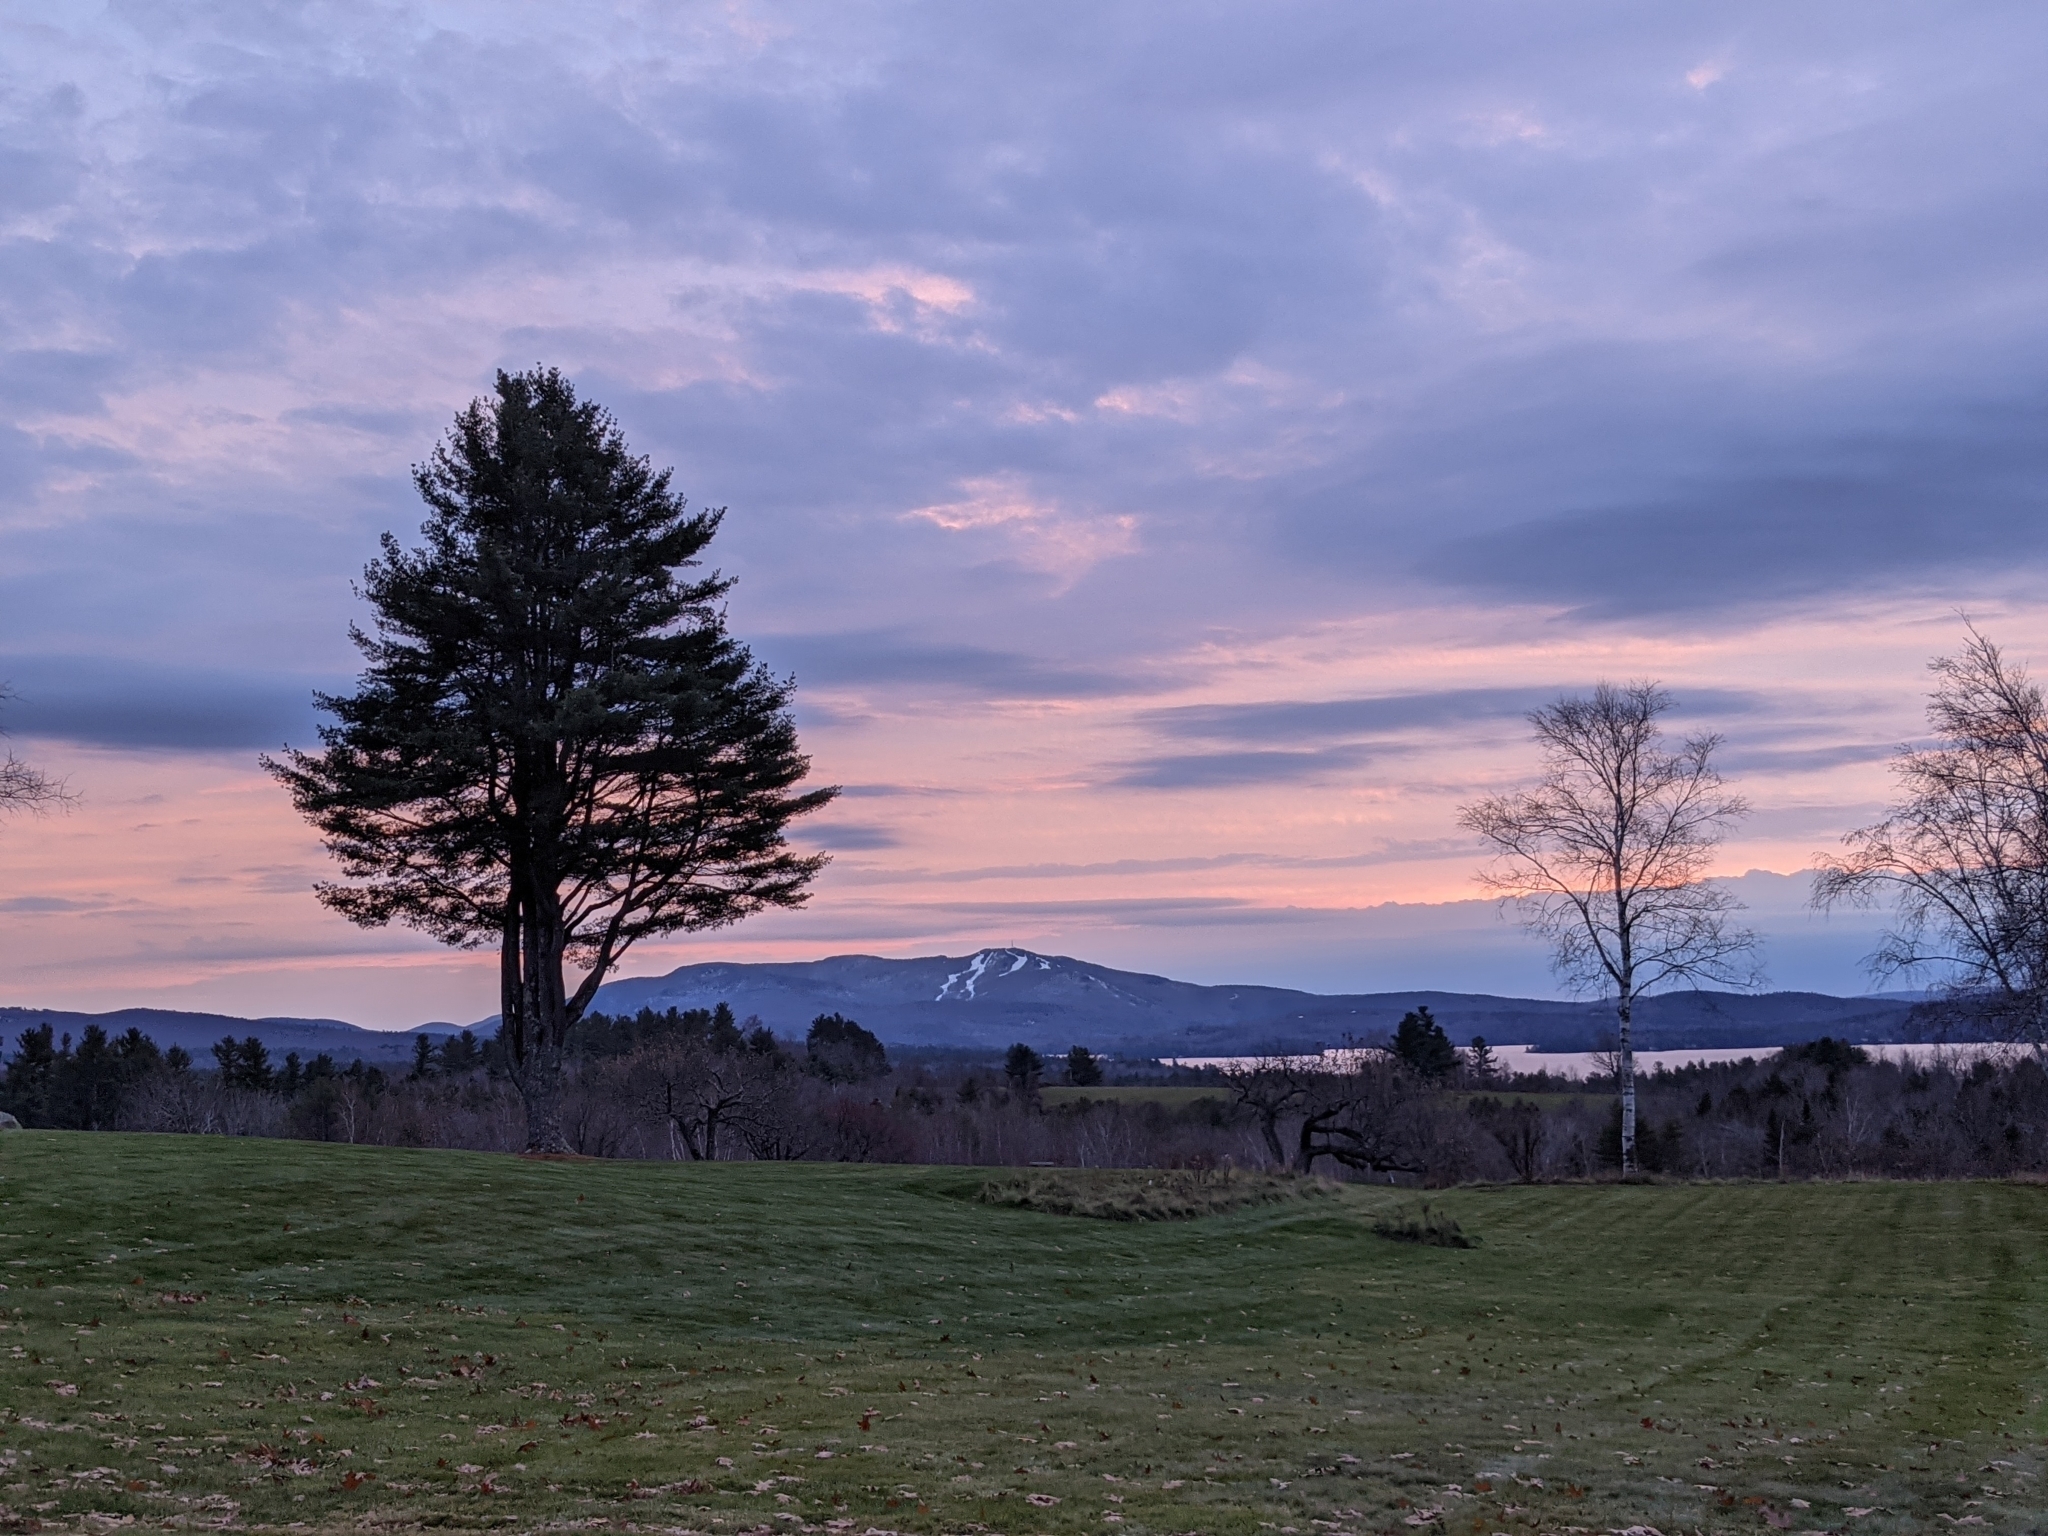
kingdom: Plantae
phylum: Tracheophyta
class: Pinopsida
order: Pinales
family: Pinaceae
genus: Pinus
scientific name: Pinus strobus
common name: Weymouth pine
